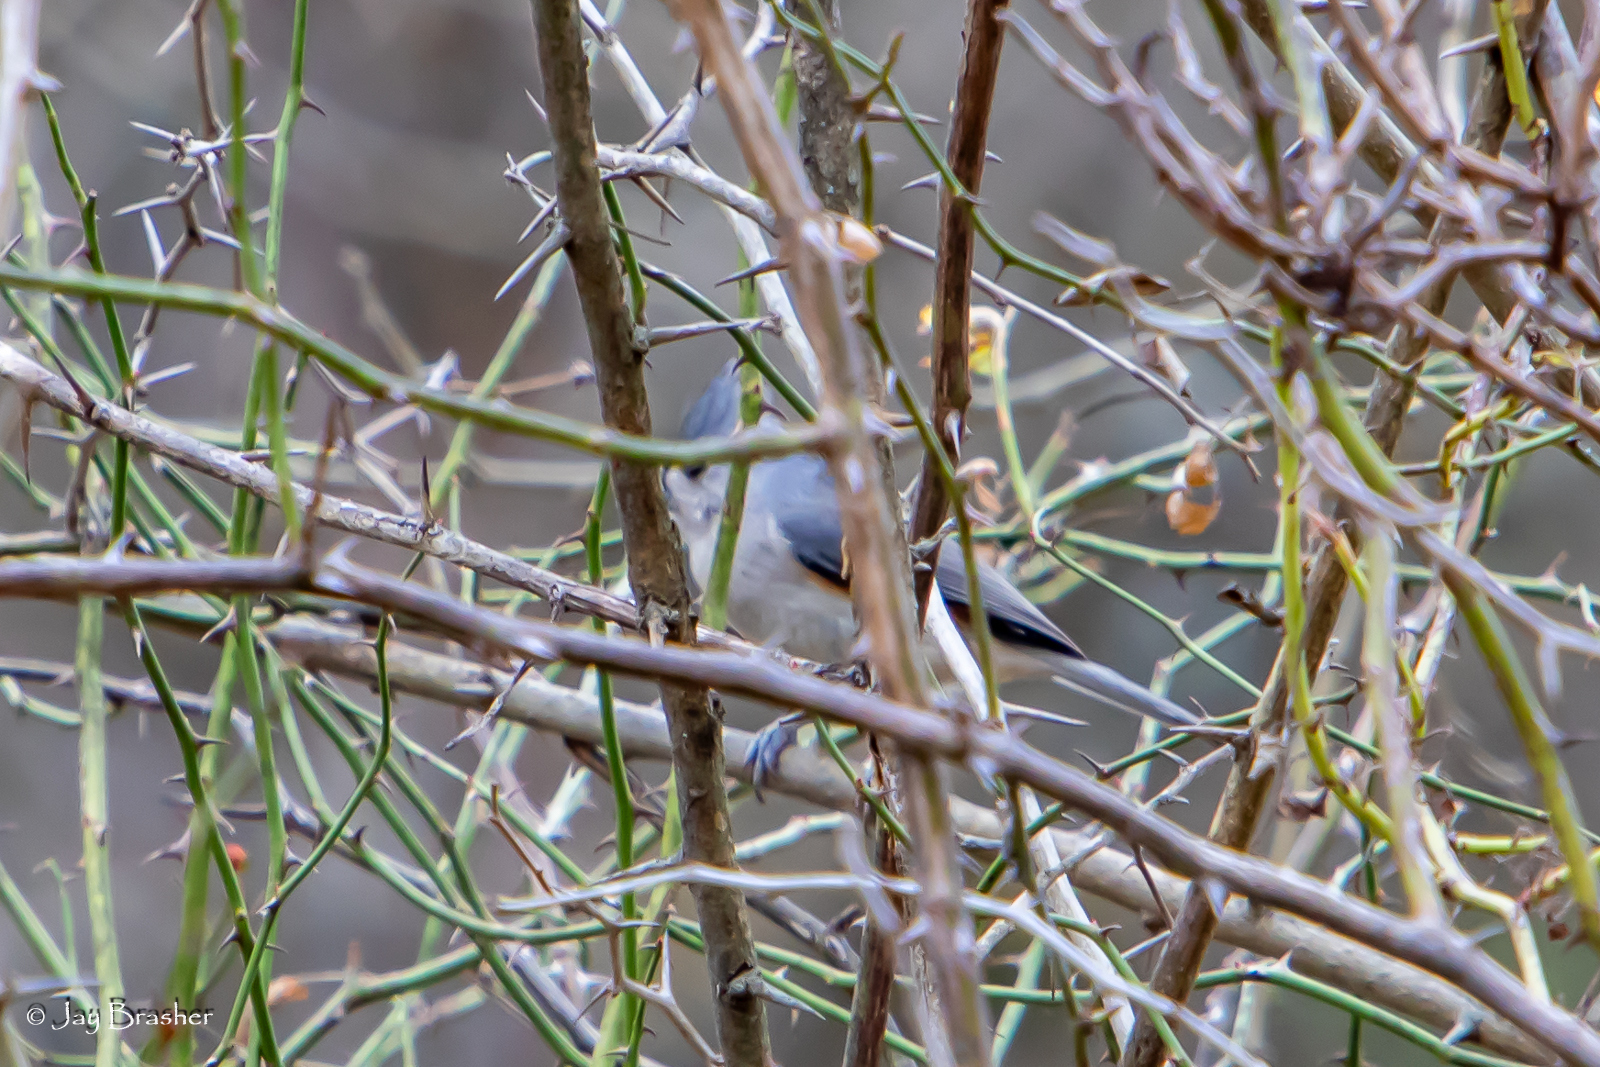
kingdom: Animalia
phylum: Chordata
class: Aves
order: Passeriformes
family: Paridae
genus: Baeolophus
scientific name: Baeolophus bicolor
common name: Tufted titmouse
